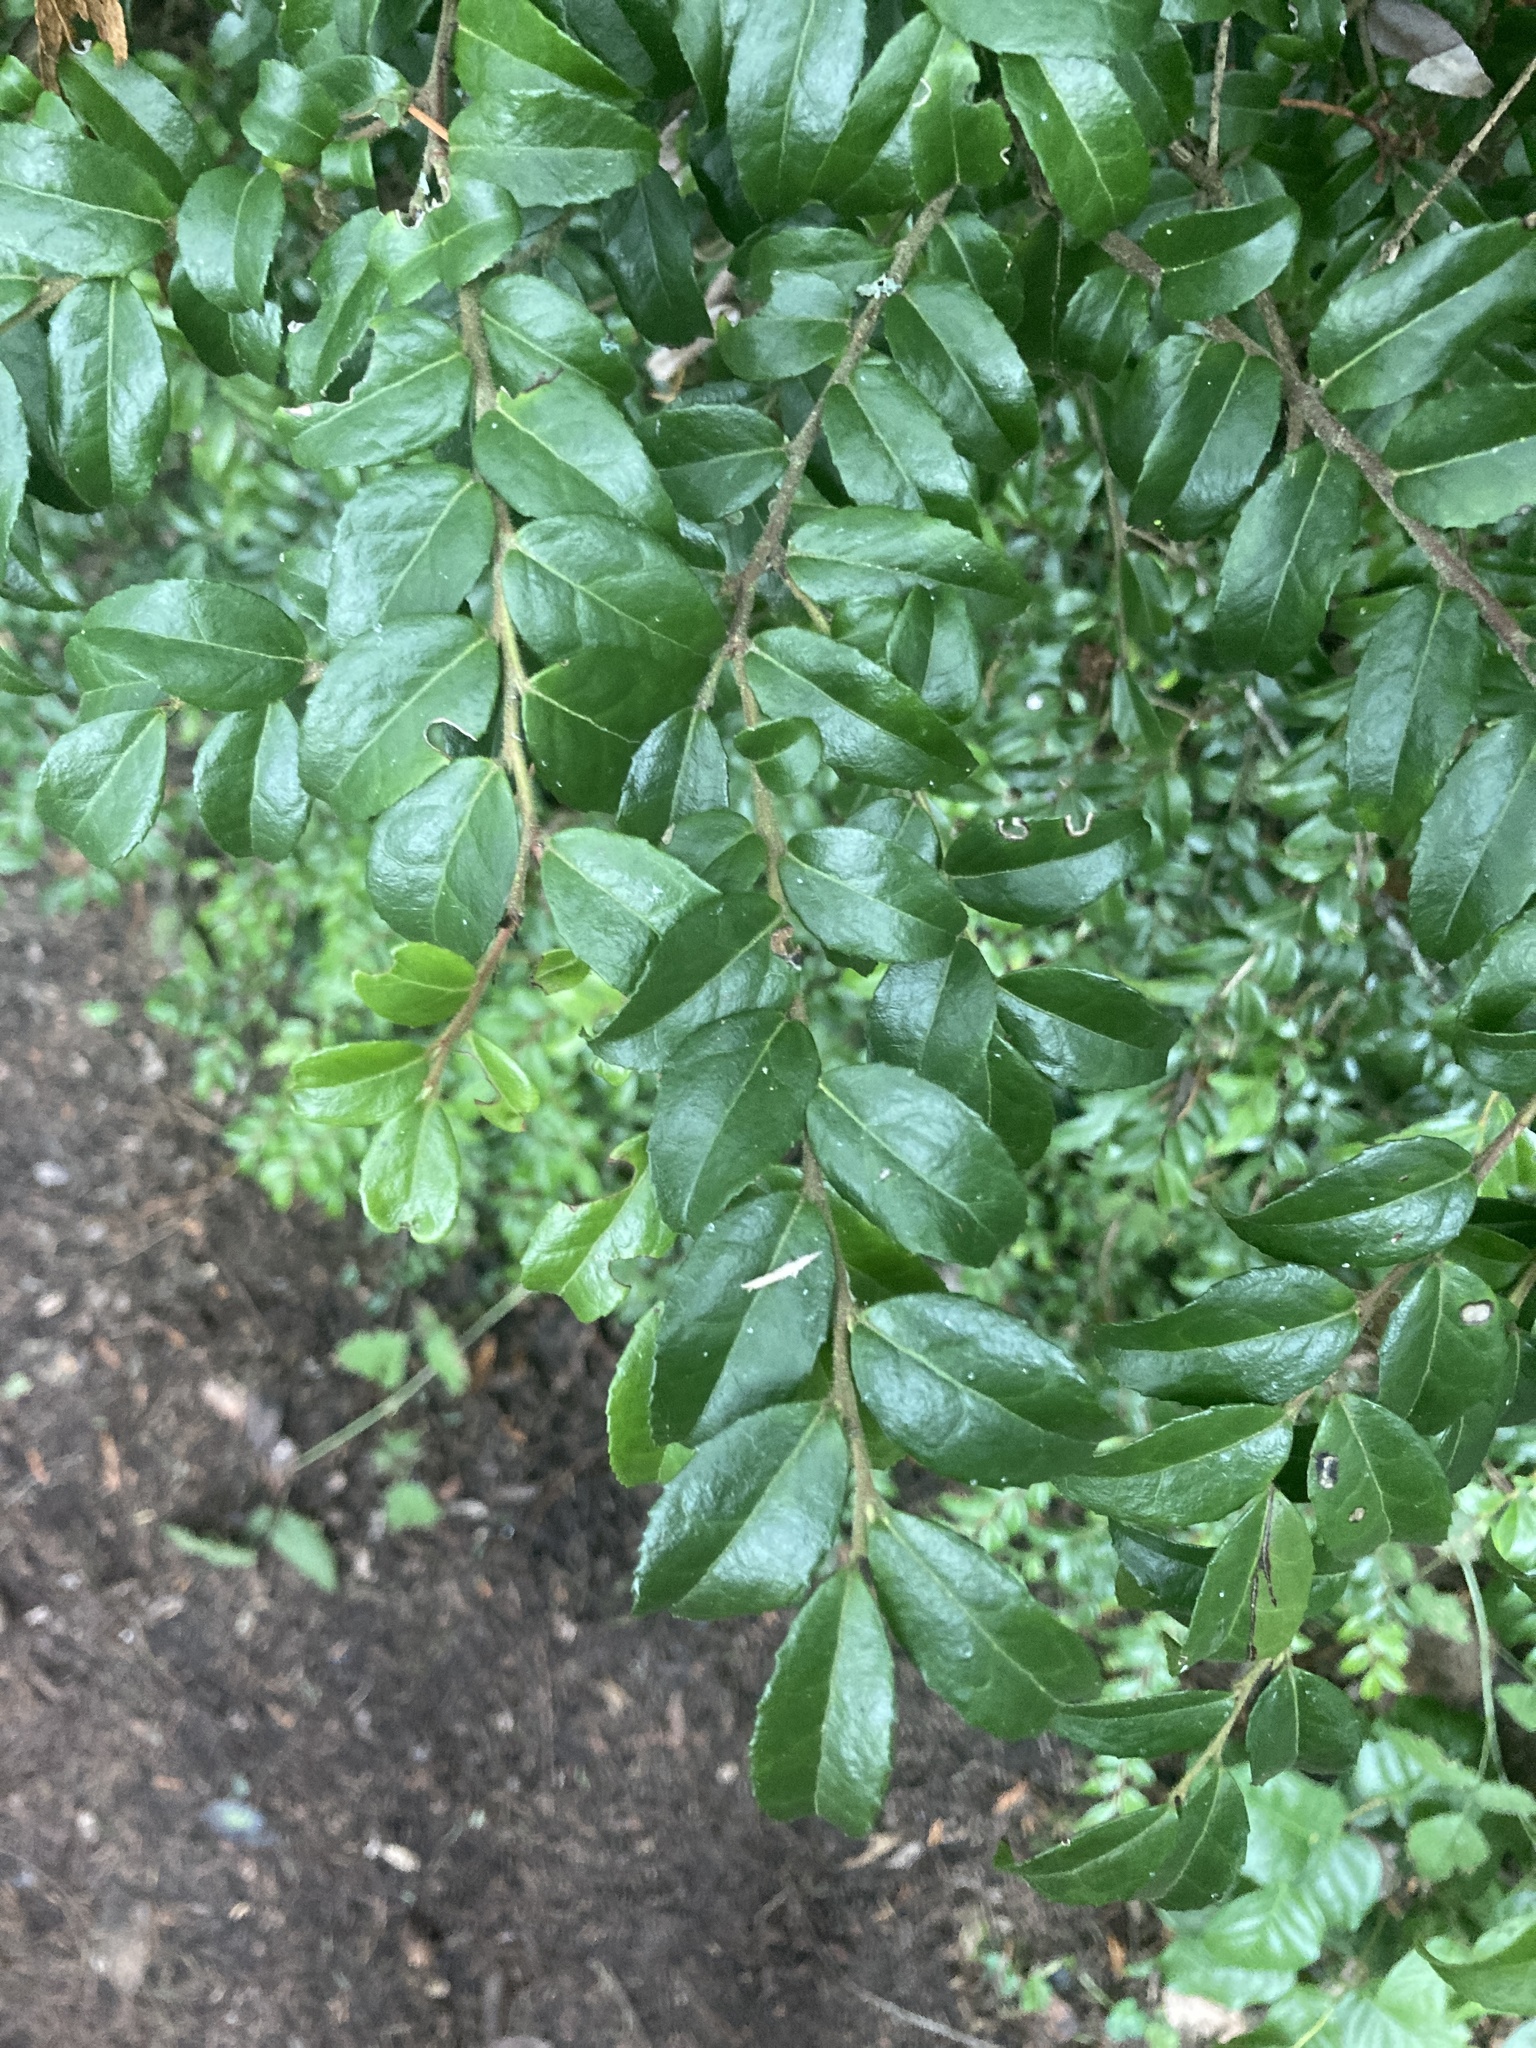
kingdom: Plantae
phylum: Tracheophyta
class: Magnoliopsida
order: Ericales
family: Ericaceae
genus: Vaccinium
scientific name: Vaccinium ovatum
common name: California-huckleberry
